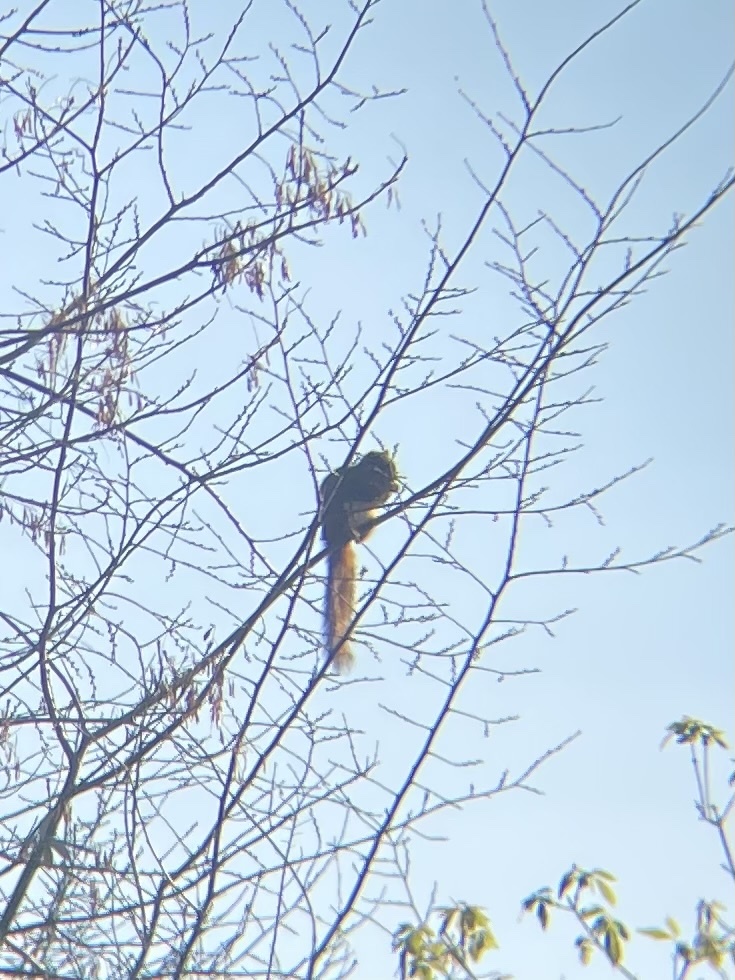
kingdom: Animalia
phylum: Chordata
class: Mammalia
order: Rodentia
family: Sciuridae
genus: Sciurus
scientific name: Sciurus niger
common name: Fox squirrel
